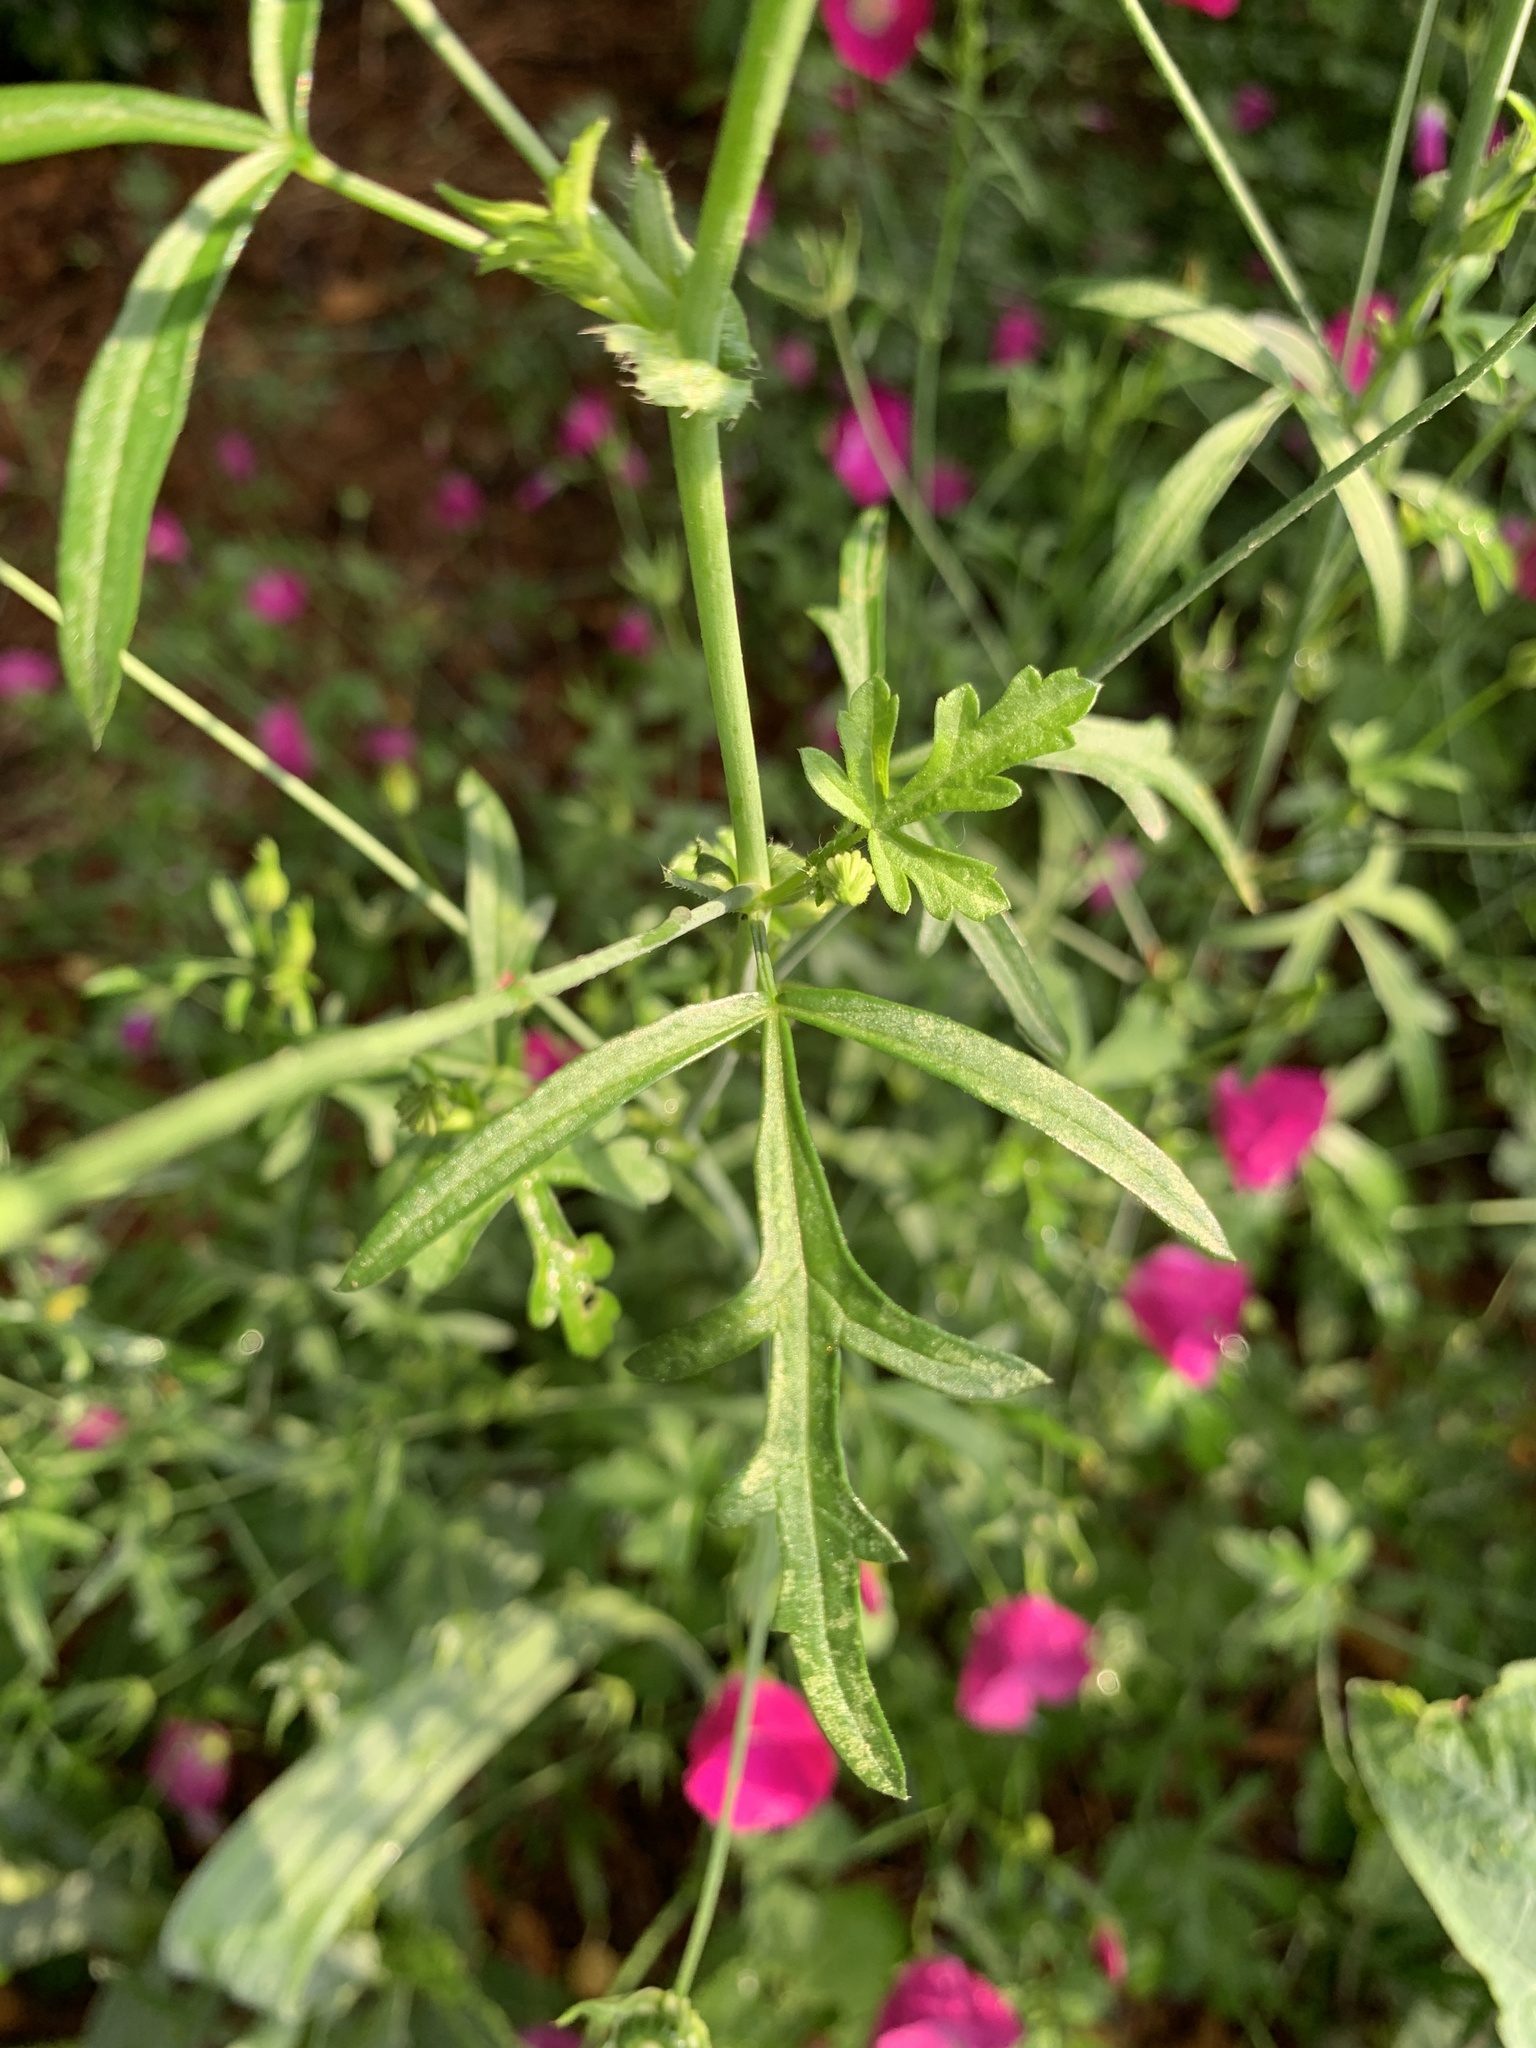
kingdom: Plantae
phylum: Tracheophyta
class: Magnoliopsida
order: Malvales
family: Malvaceae
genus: Callirhoe
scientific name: Callirhoe leiocarpa
